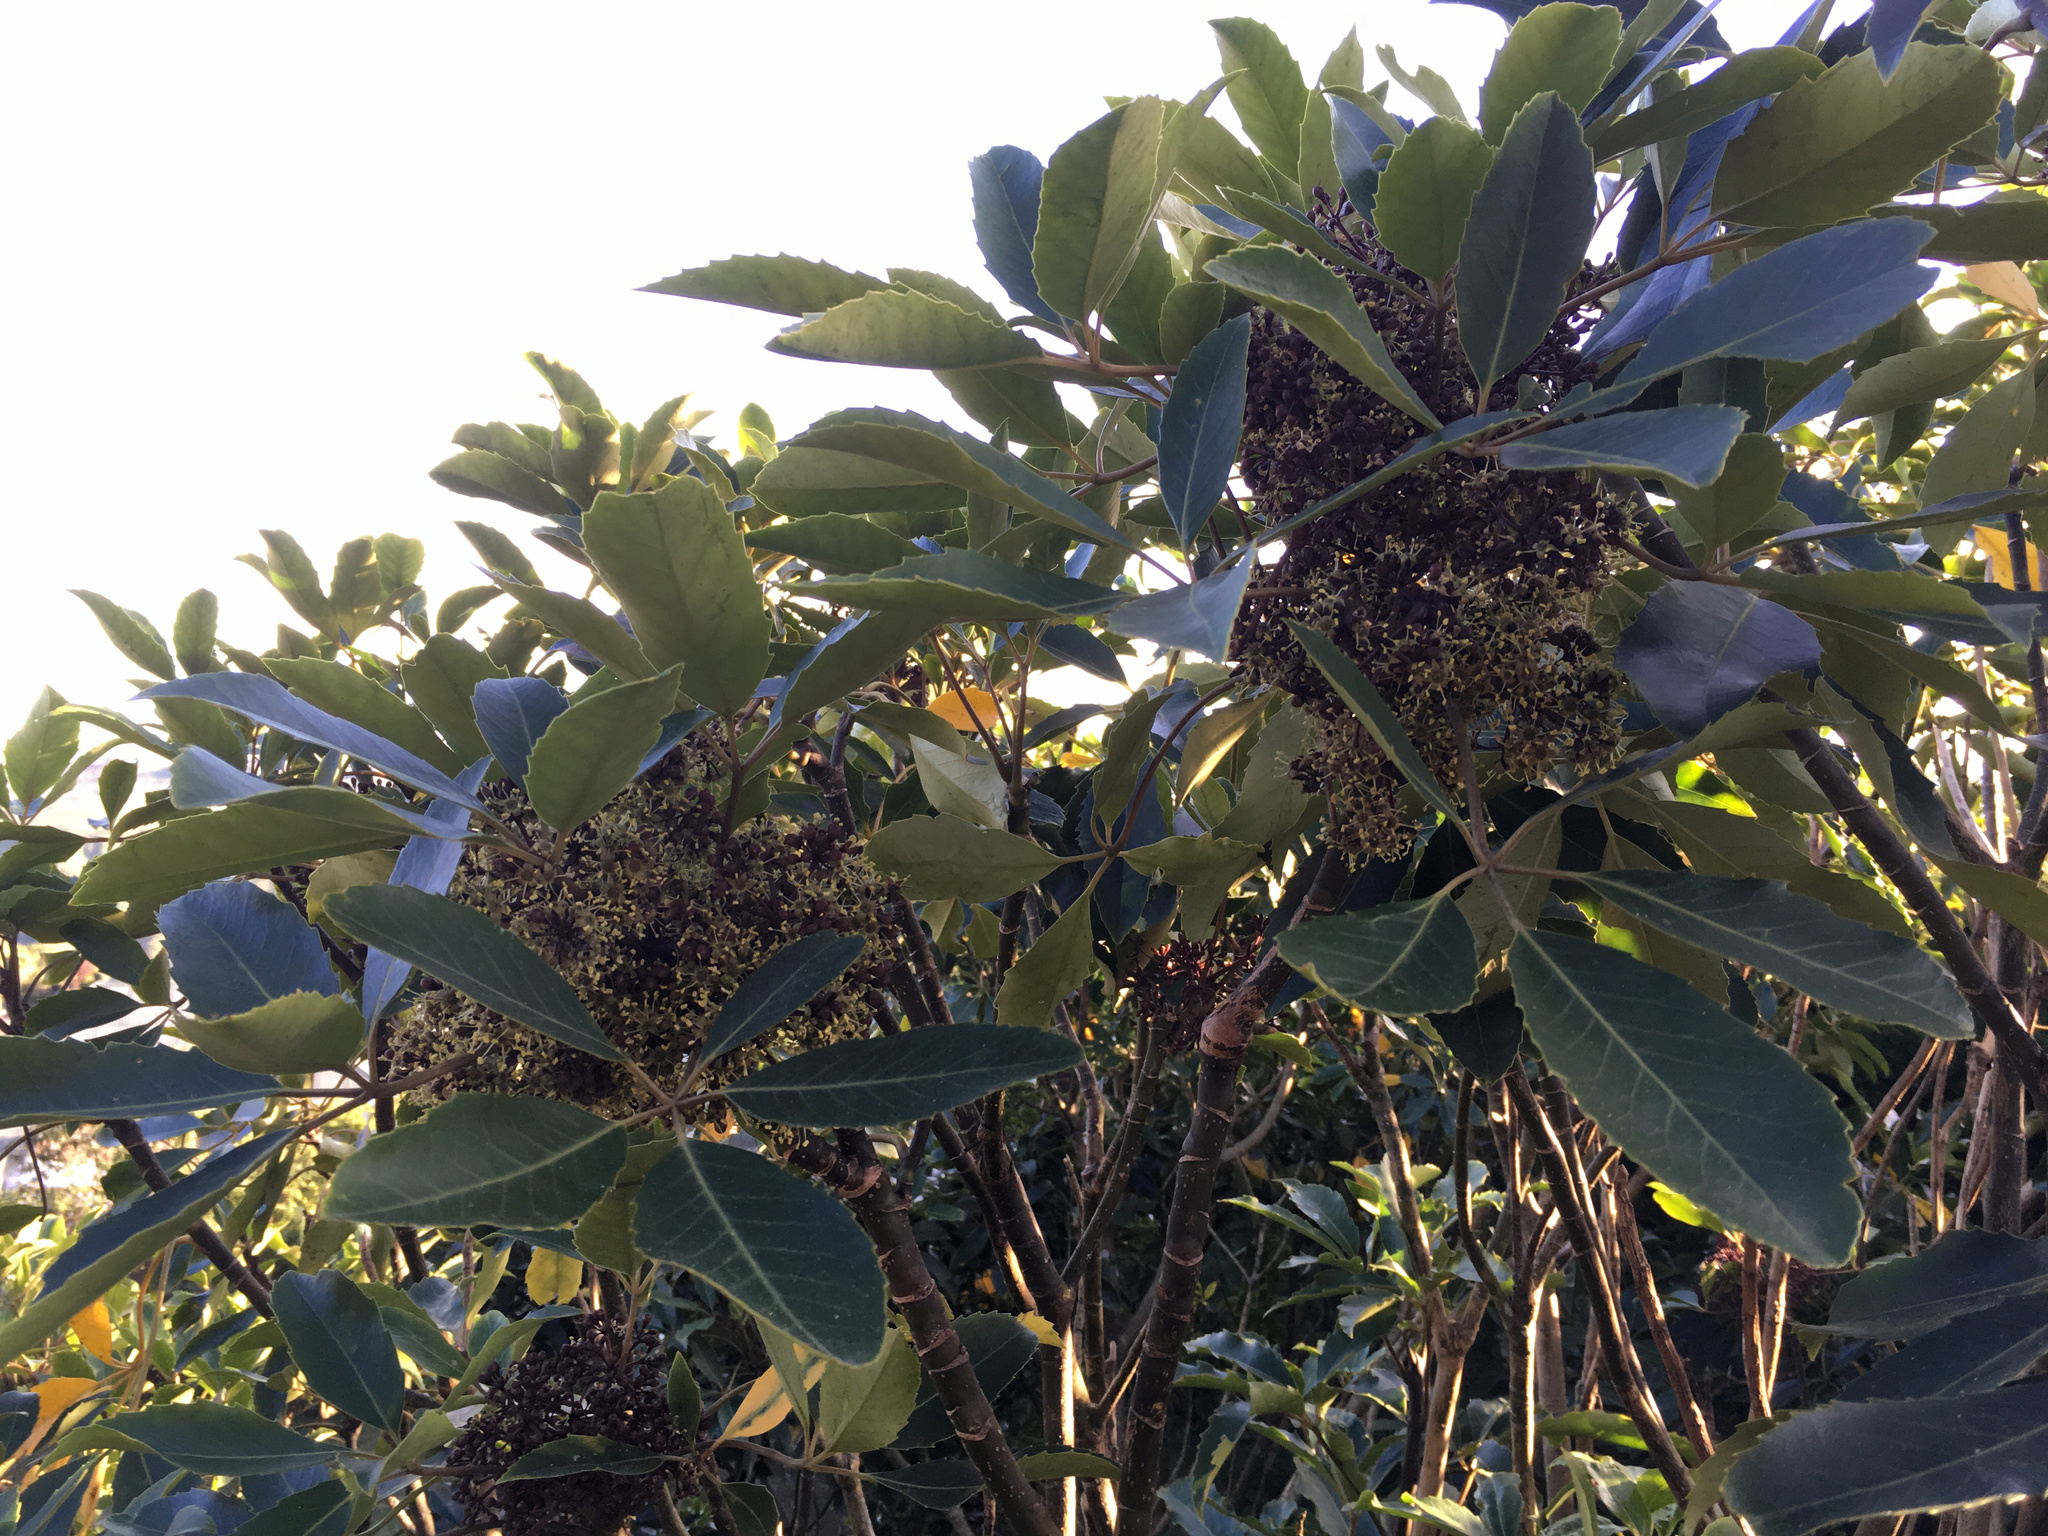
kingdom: Plantae
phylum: Tracheophyta
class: Magnoliopsida
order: Apiales
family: Araliaceae
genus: Neopanax
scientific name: Neopanax arboreus
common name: Five-fingers
